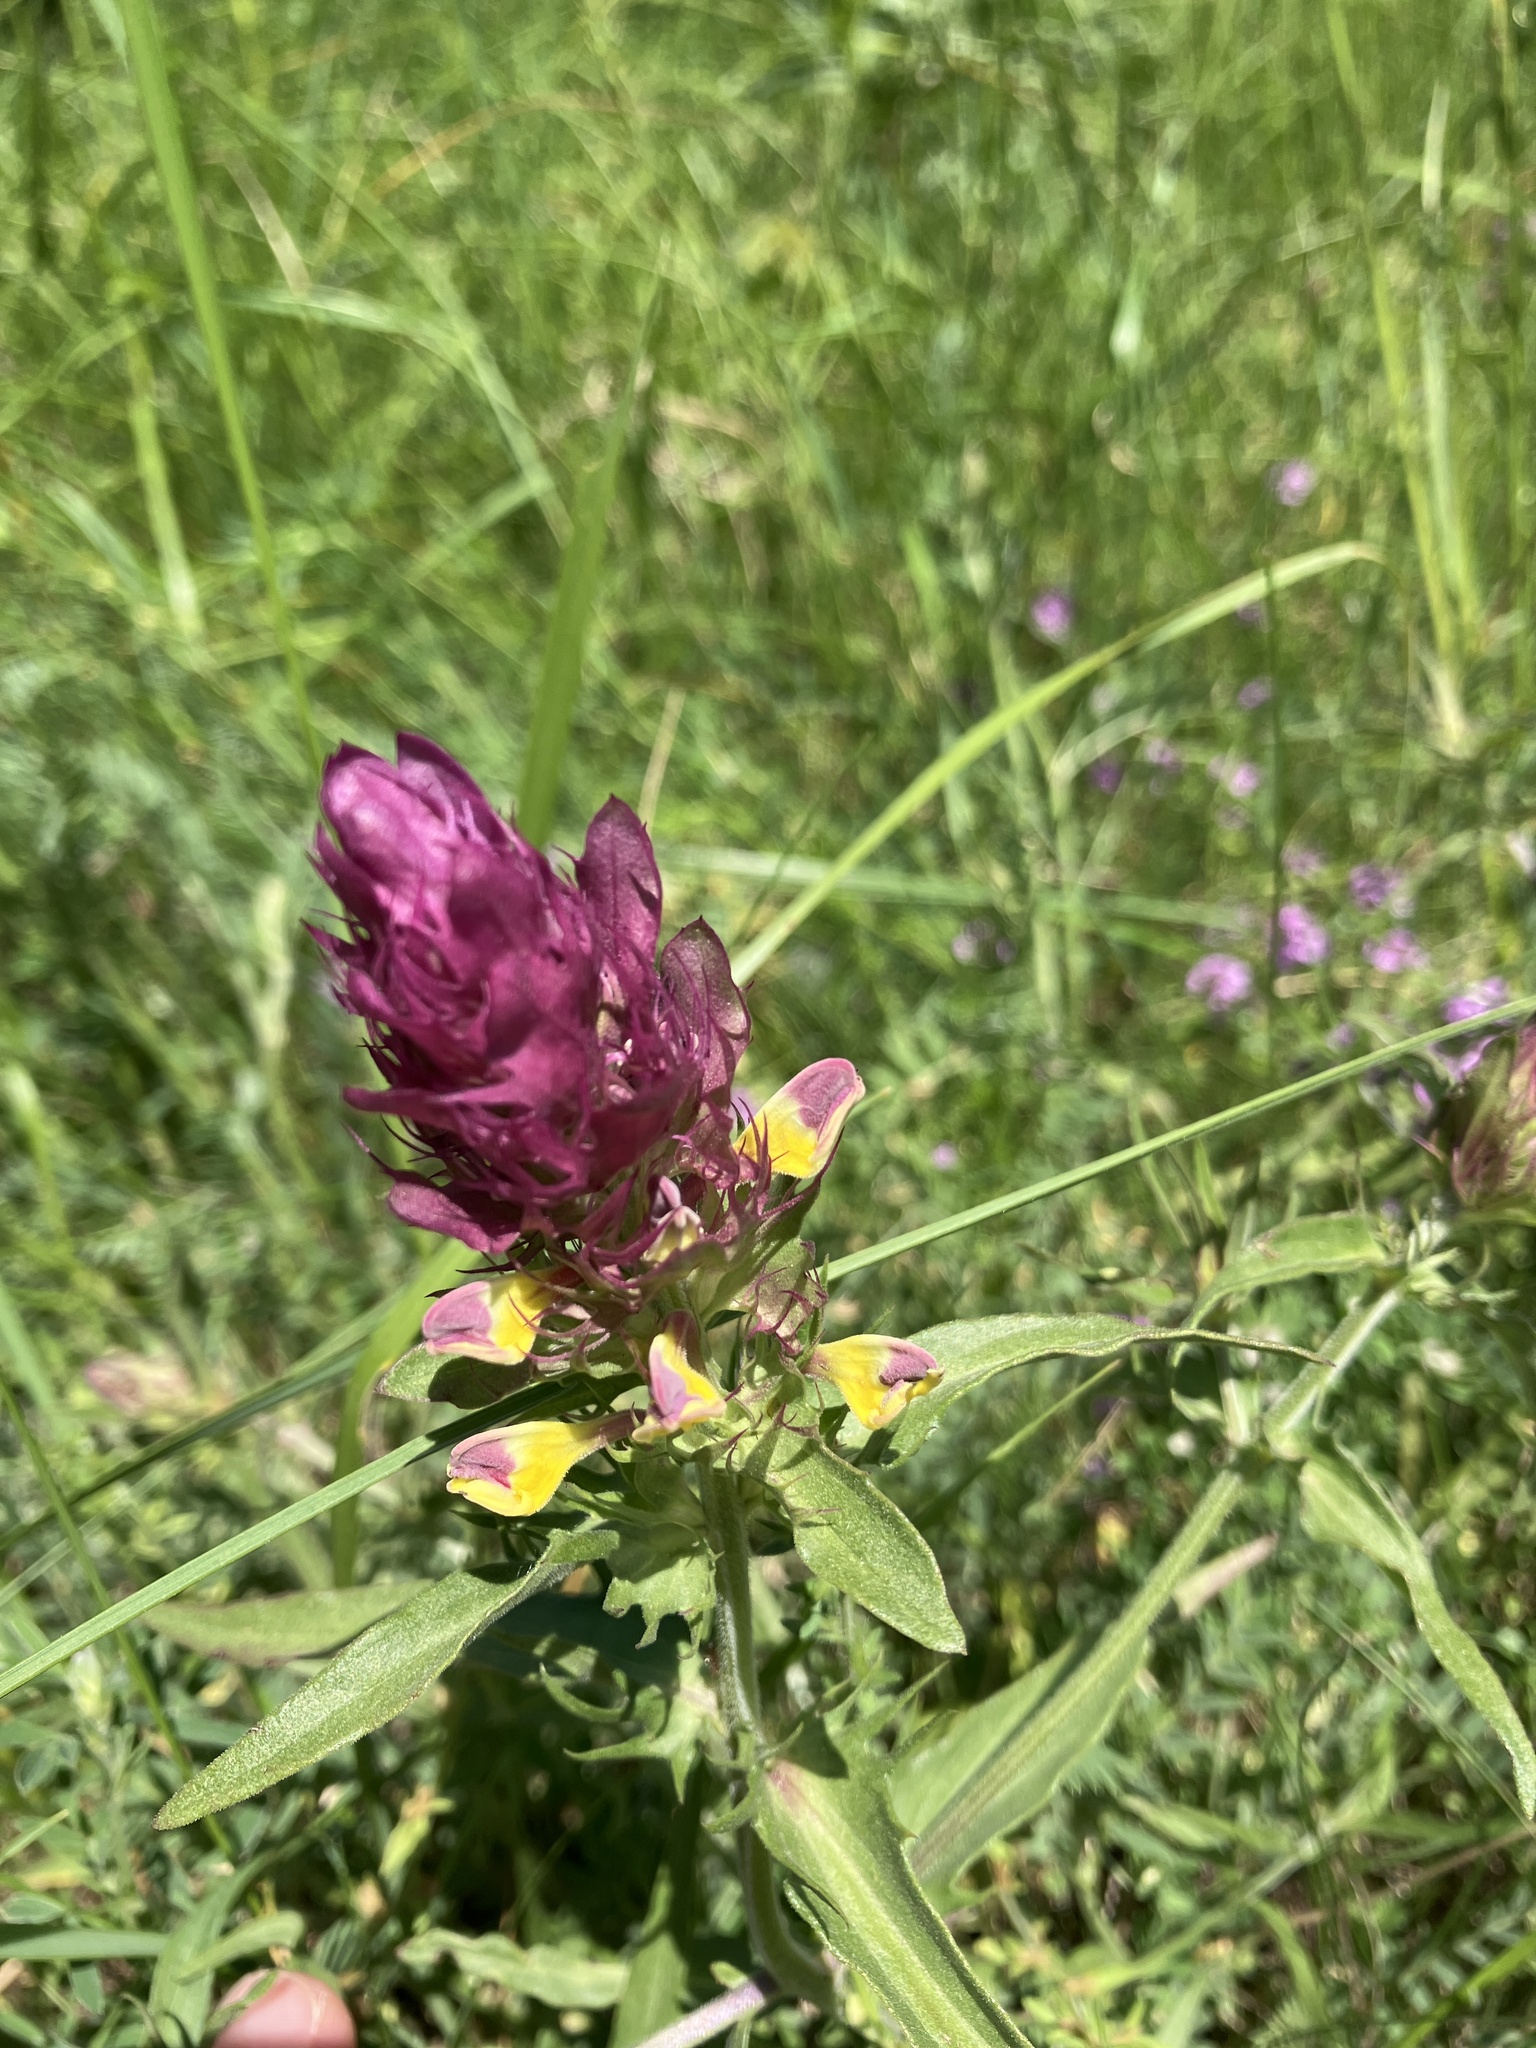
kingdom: Plantae
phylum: Tracheophyta
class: Magnoliopsida
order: Lamiales
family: Orobanchaceae
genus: Melampyrum
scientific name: Melampyrum arvense
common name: Field cow-wheat
